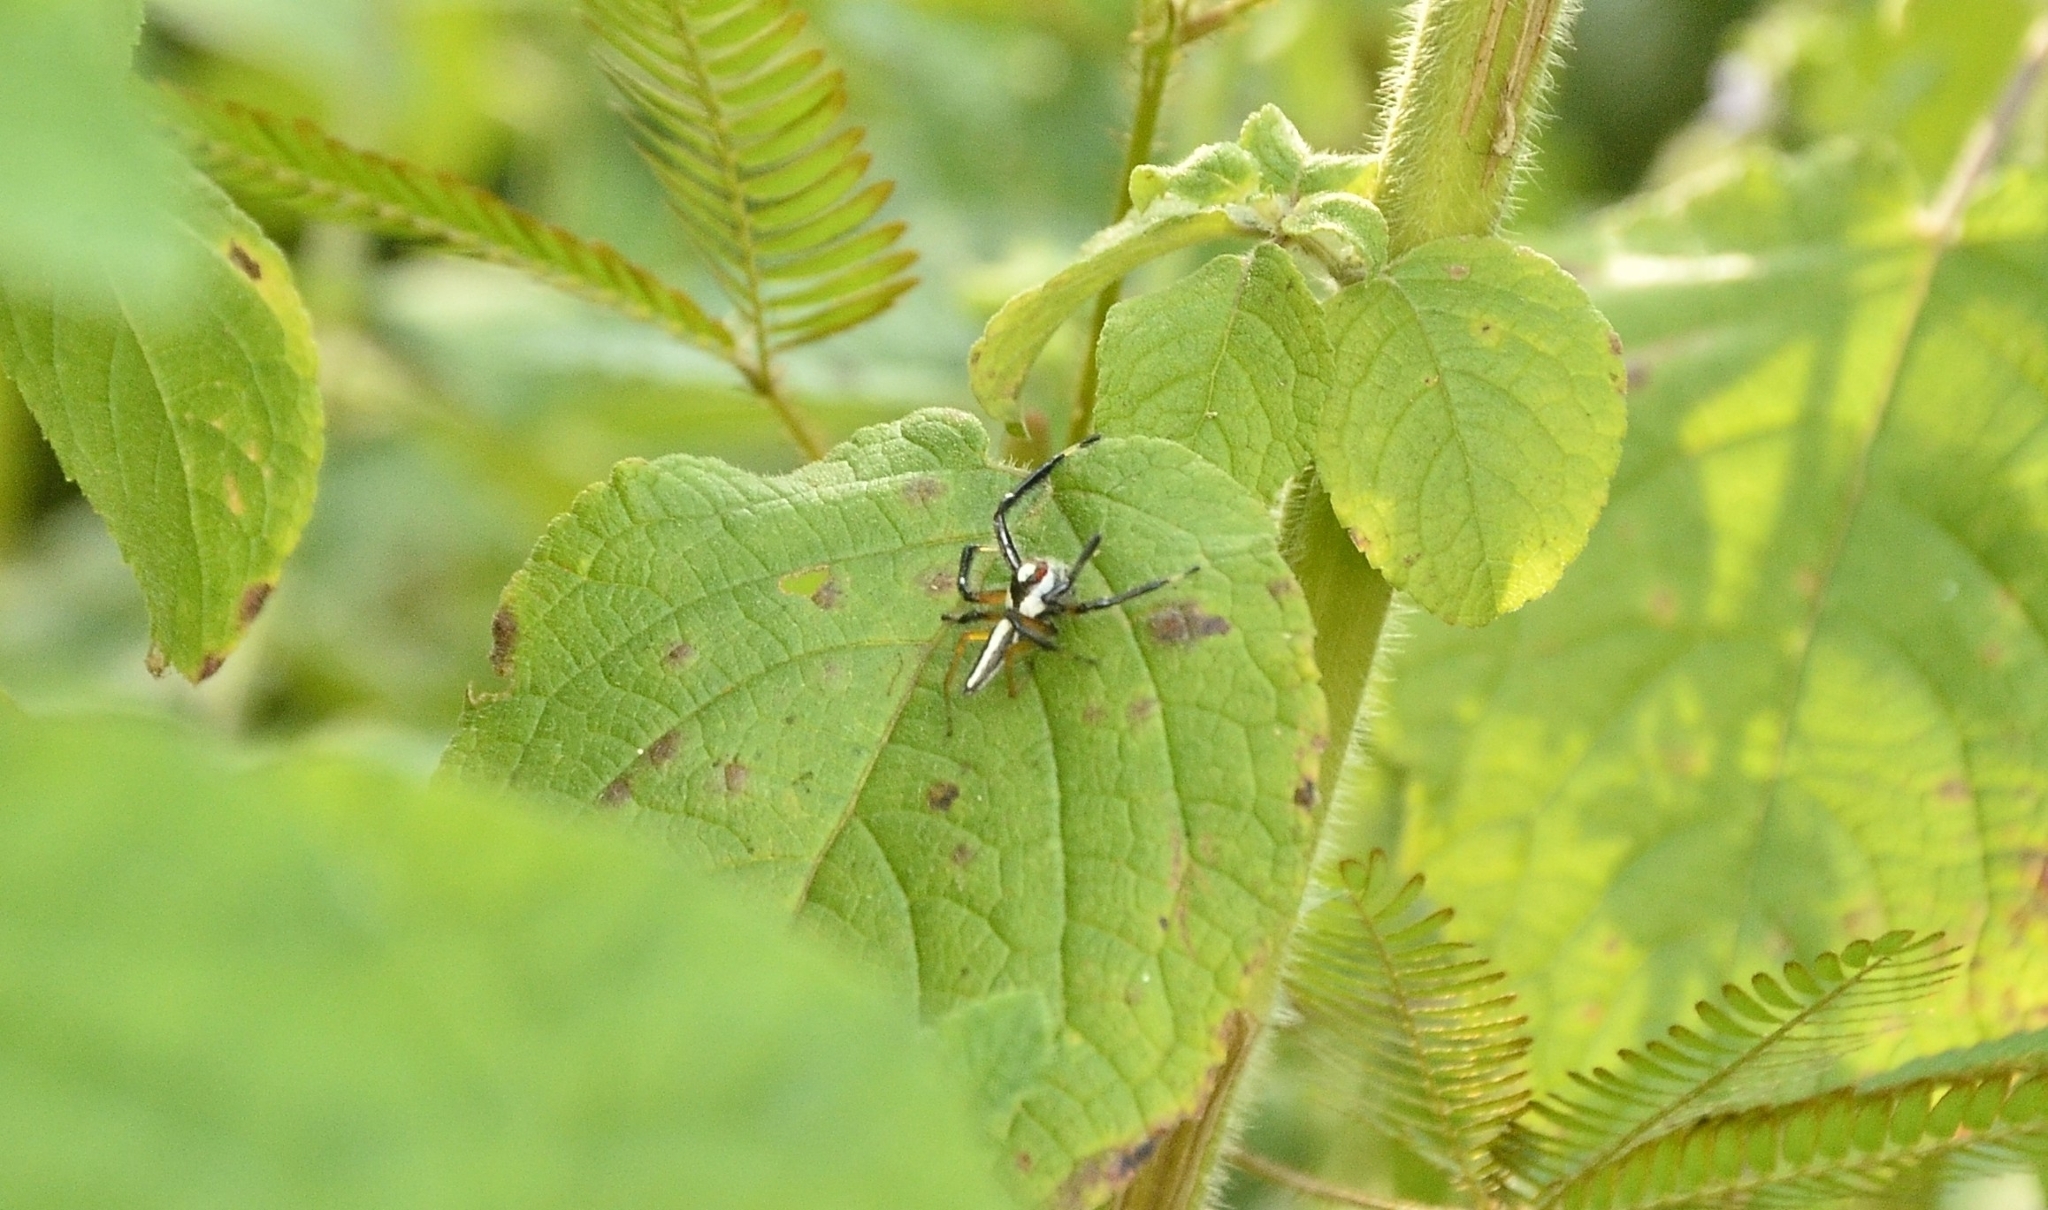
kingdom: Animalia
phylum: Arthropoda
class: Arachnida
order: Araneae
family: Salticidae
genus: Telamonia
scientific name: Telamonia dimidiata
